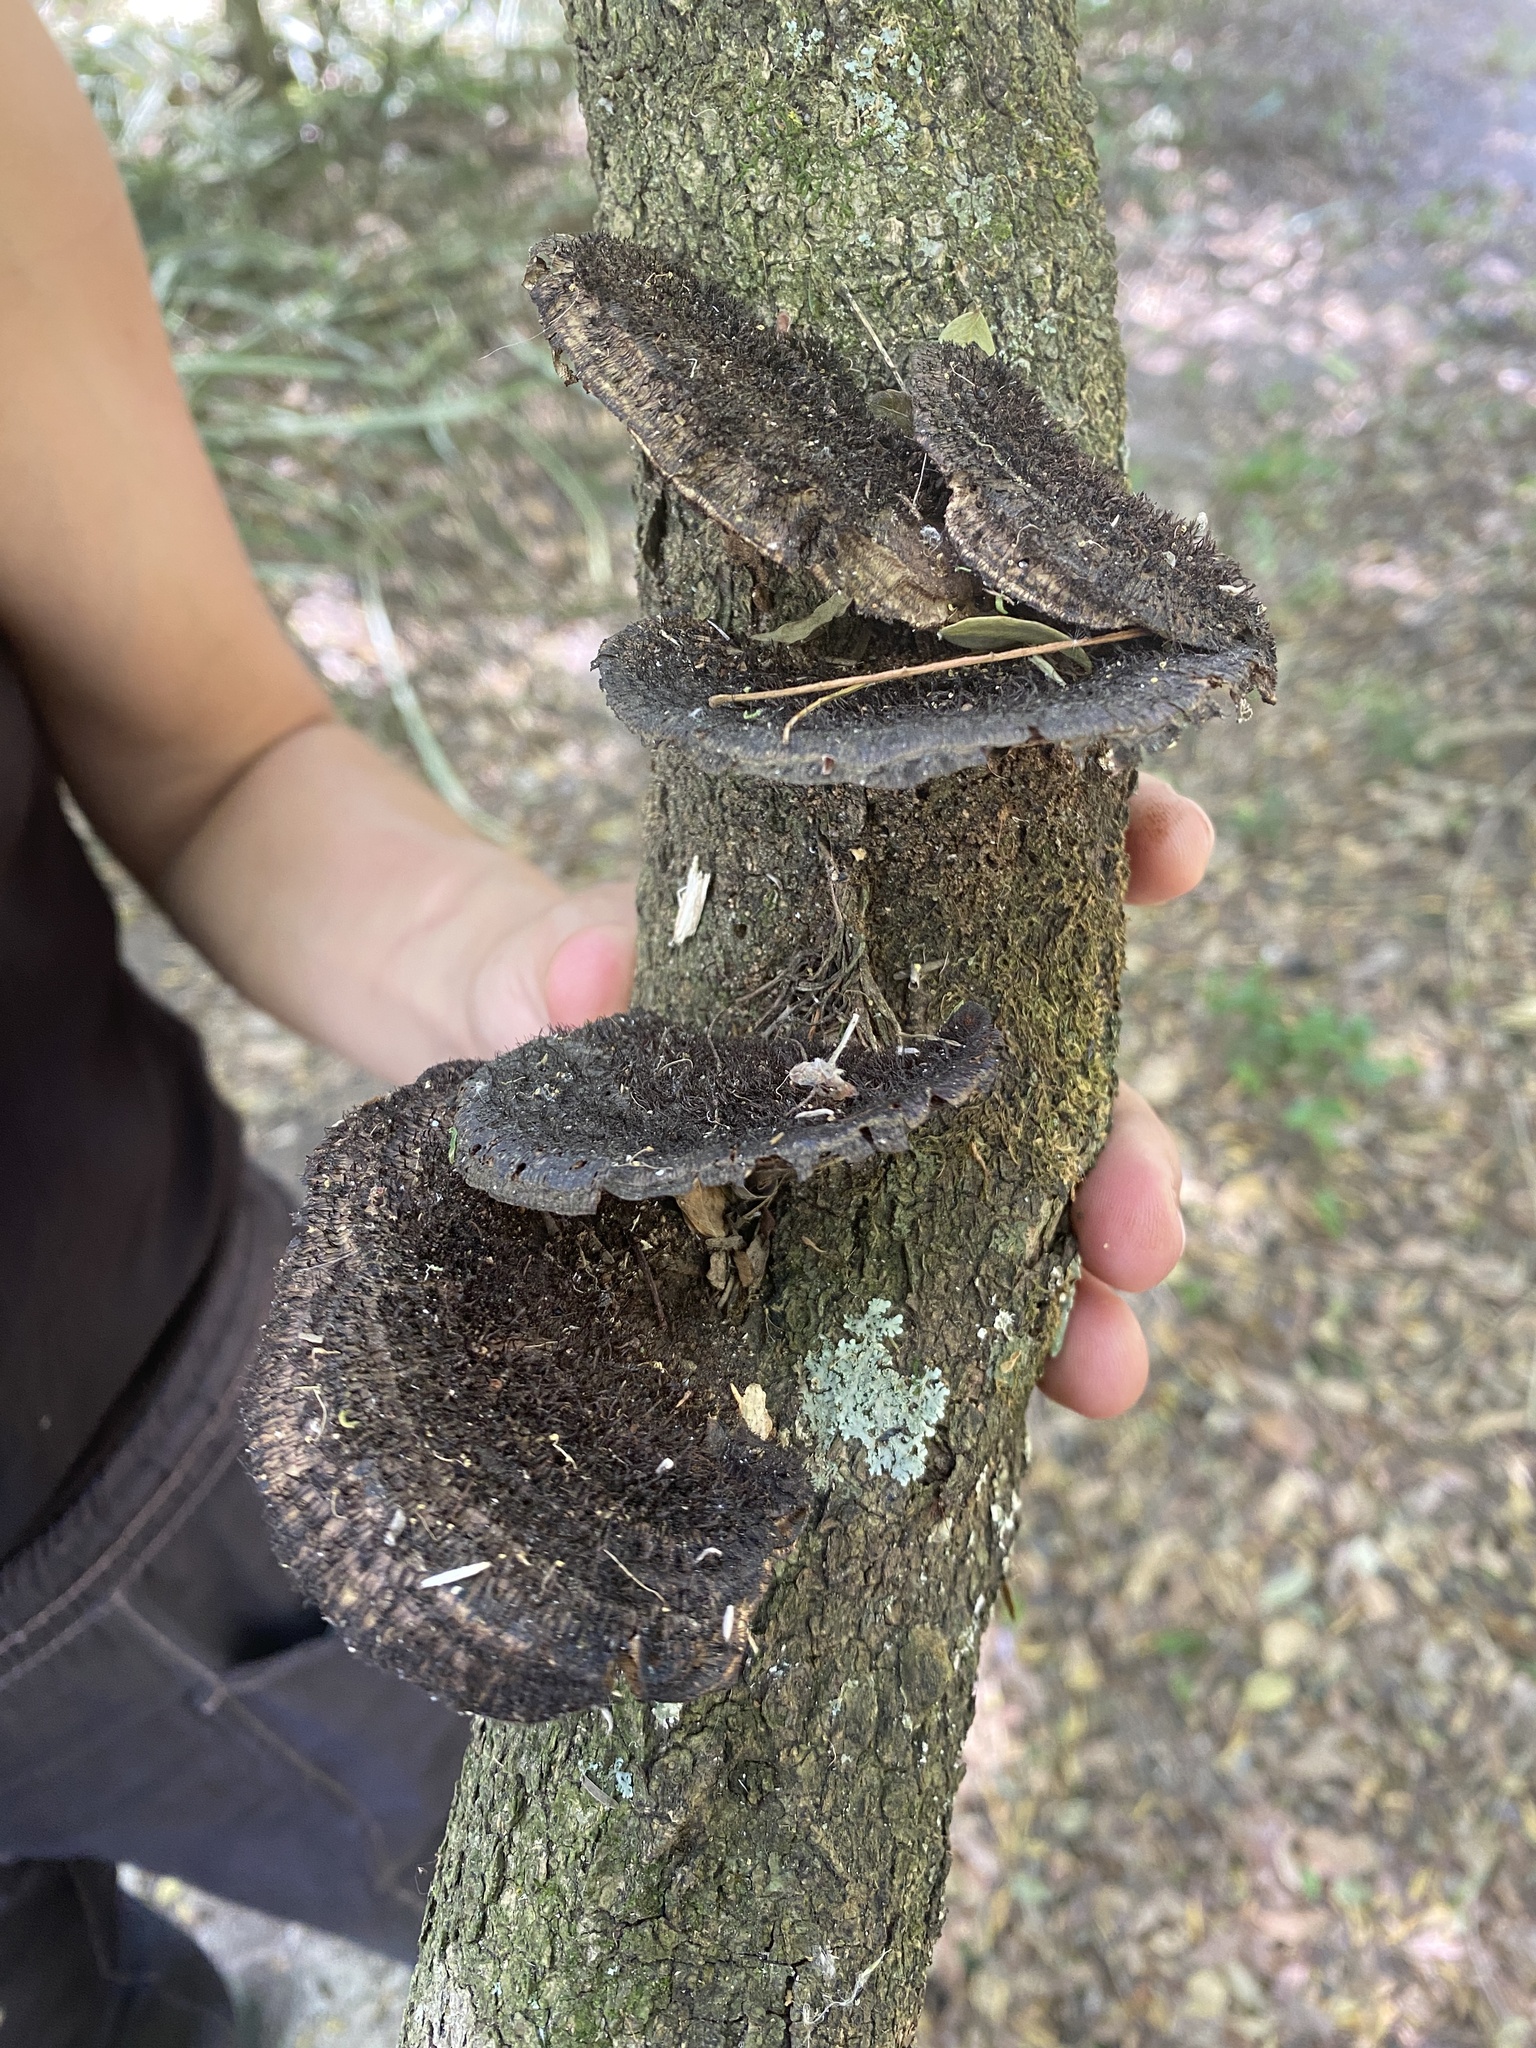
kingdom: Fungi
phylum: Basidiomycota
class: Agaricomycetes
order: Polyporales
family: Cerrenaceae
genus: Cerrena
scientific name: Cerrena hydnoides
